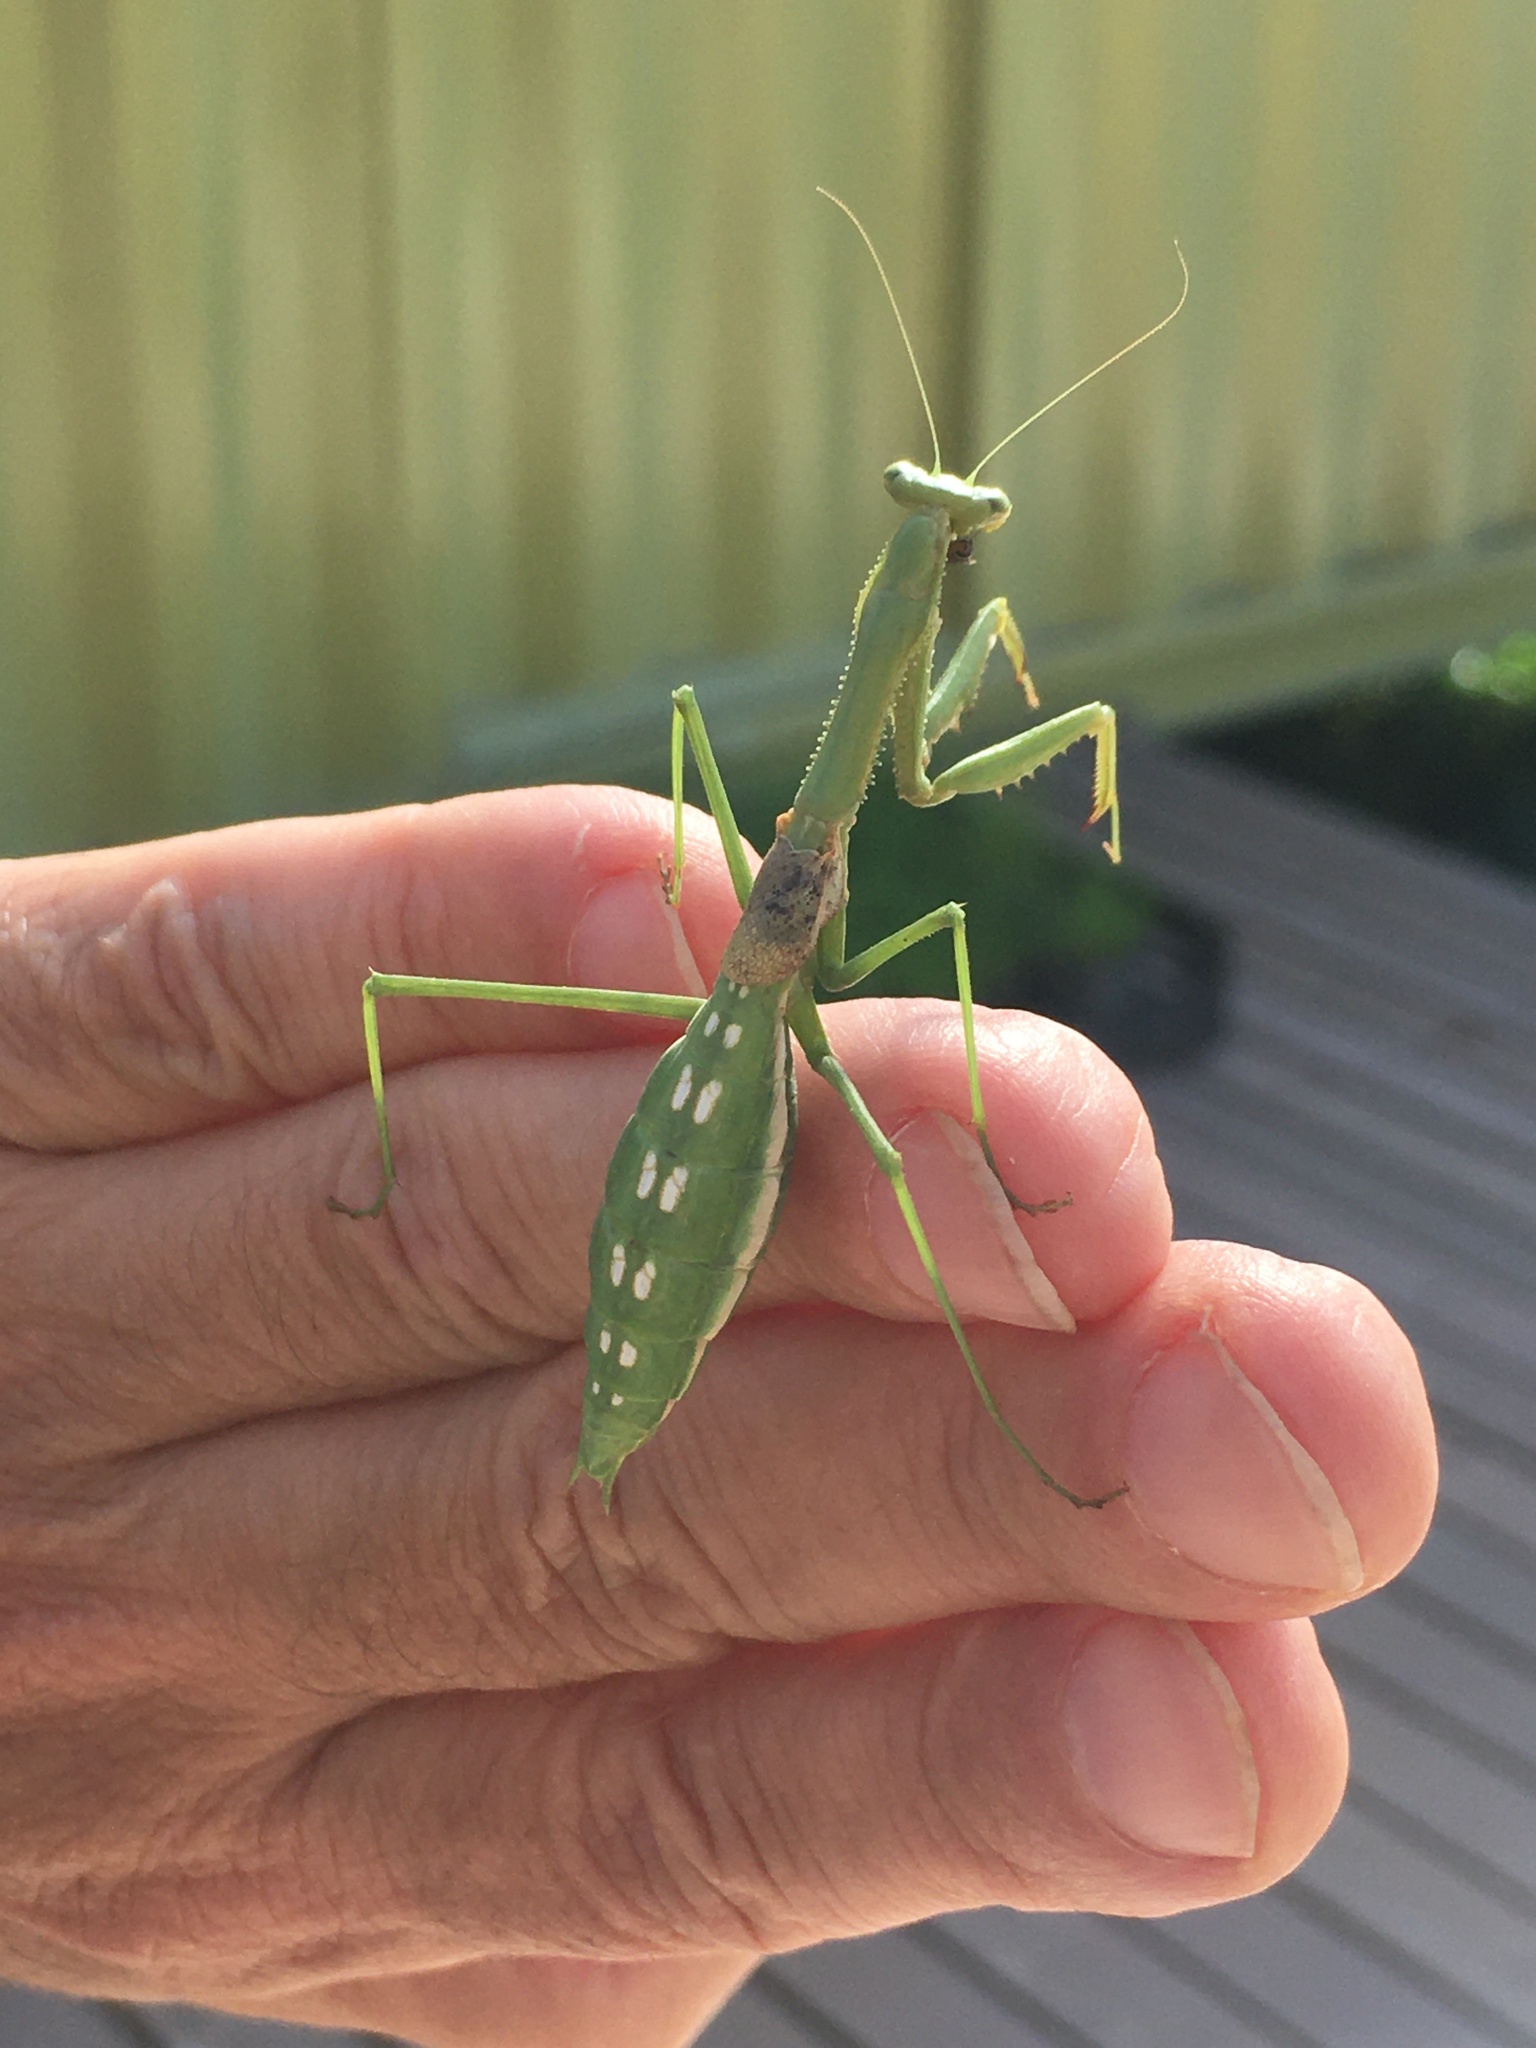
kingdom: Animalia
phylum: Arthropoda
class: Insecta
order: Mantodea
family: Coptopterygidae
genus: Coptopteryx
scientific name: Coptopteryx gayi
